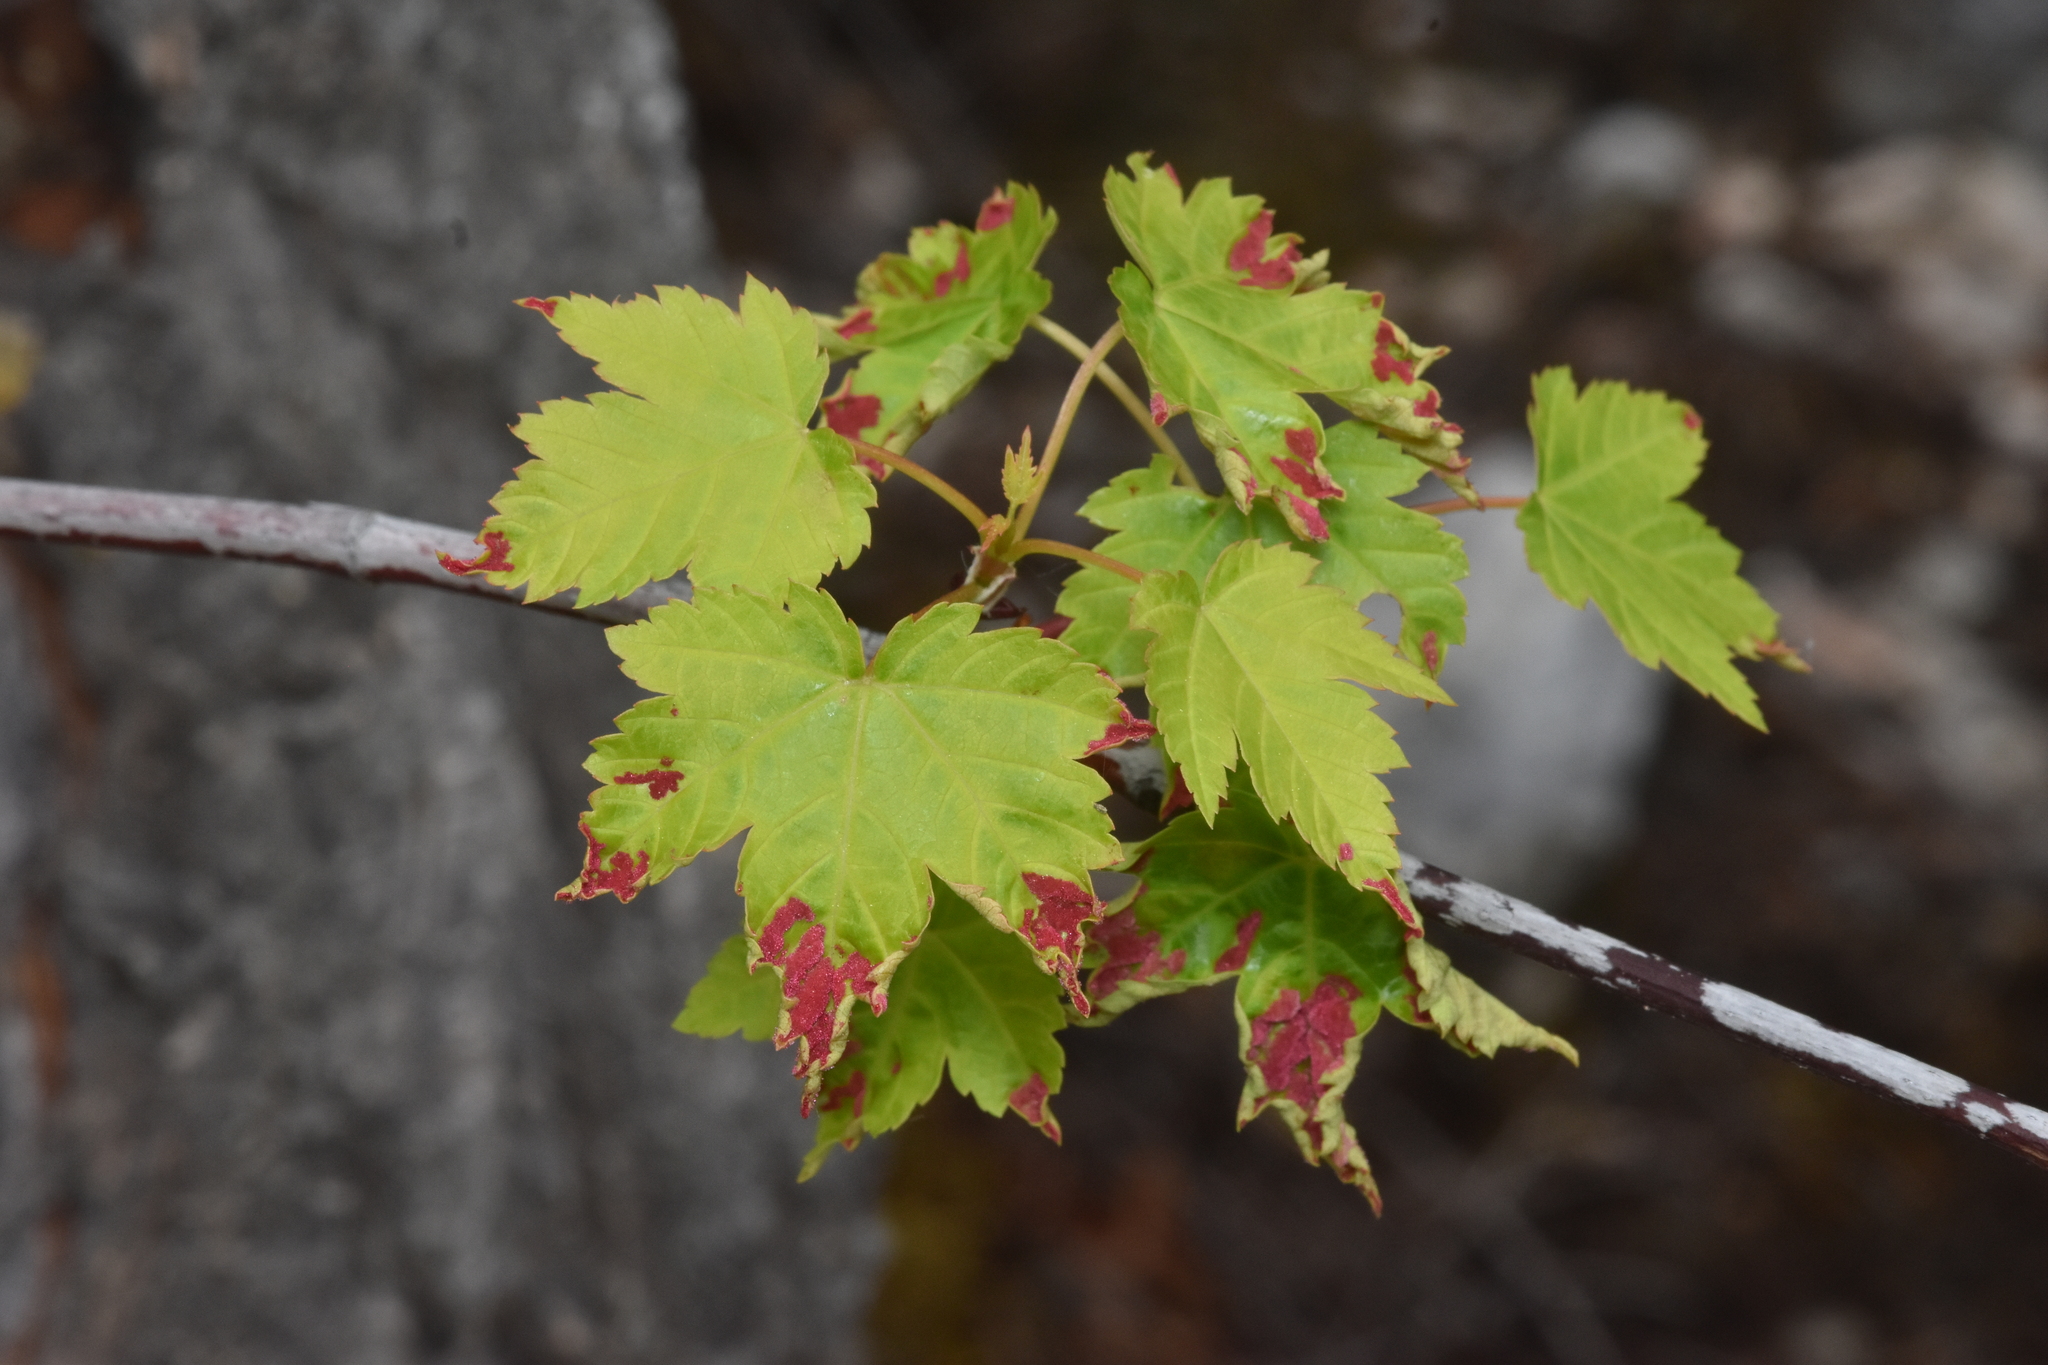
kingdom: Animalia
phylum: Arthropoda
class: Arachnida
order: Trombidiformes
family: Eriophyidae
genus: Aceria
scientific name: Aceria
